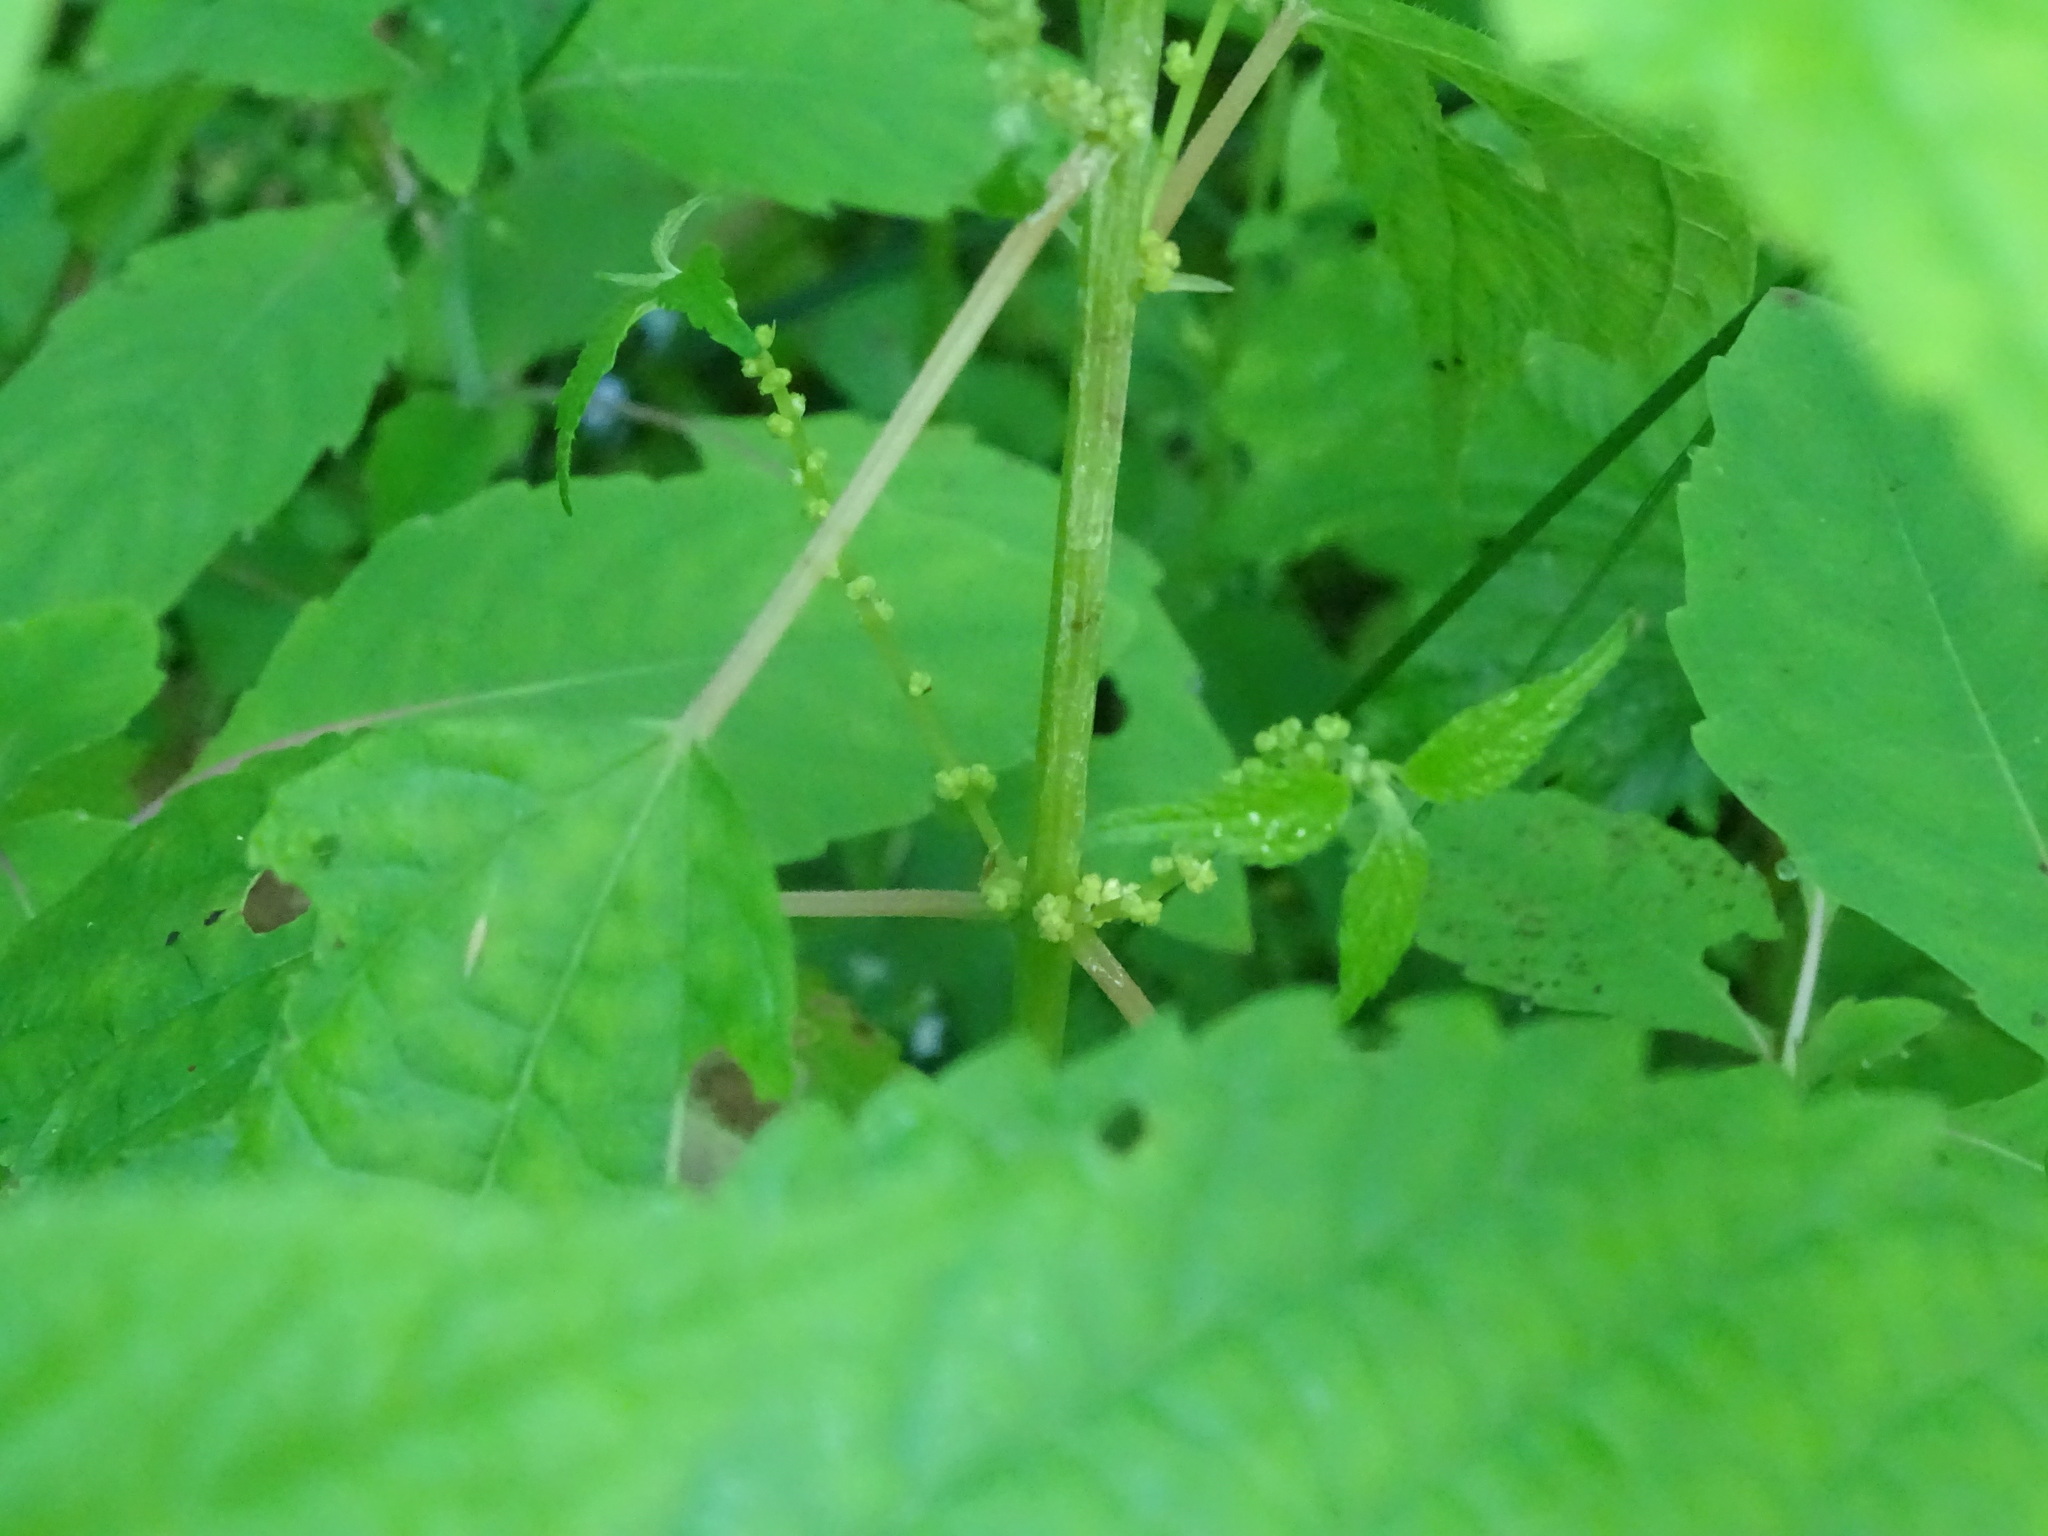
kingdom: Plantae
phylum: Tracheophyta
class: Magnoliopsida
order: Rosales
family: Urticaceae
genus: Boehmeria
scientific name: Boehmeria cylindrica
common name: Bog-hemp
